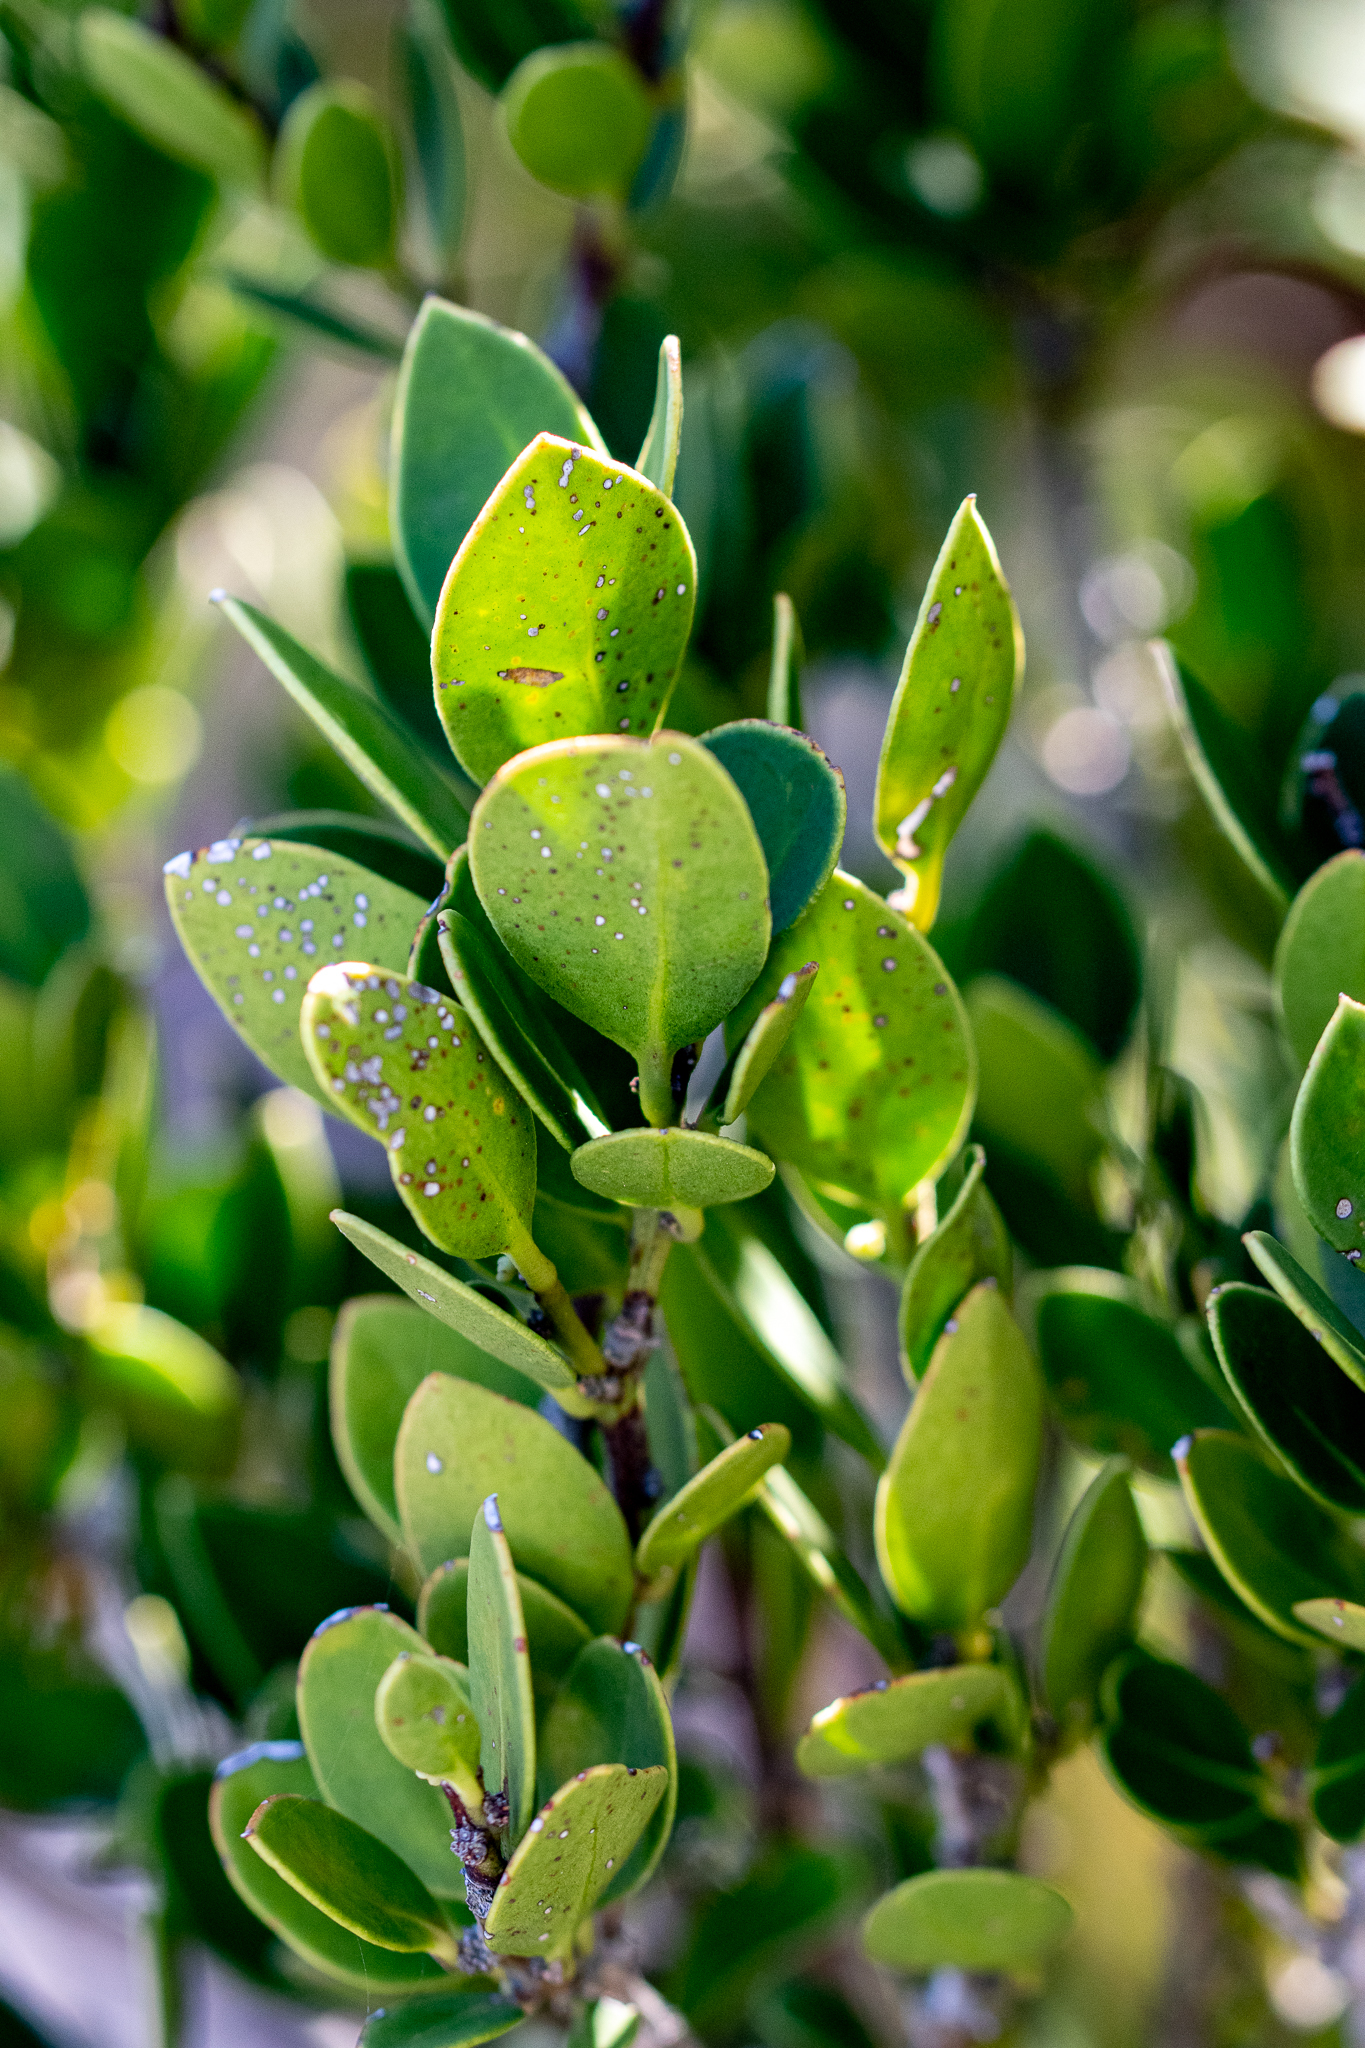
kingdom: Plantae
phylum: Tracheophyta
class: Magnoliopsida
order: Celastrales
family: Celastraceae
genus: Robsonodendron
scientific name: Robsonodendron maritimum
